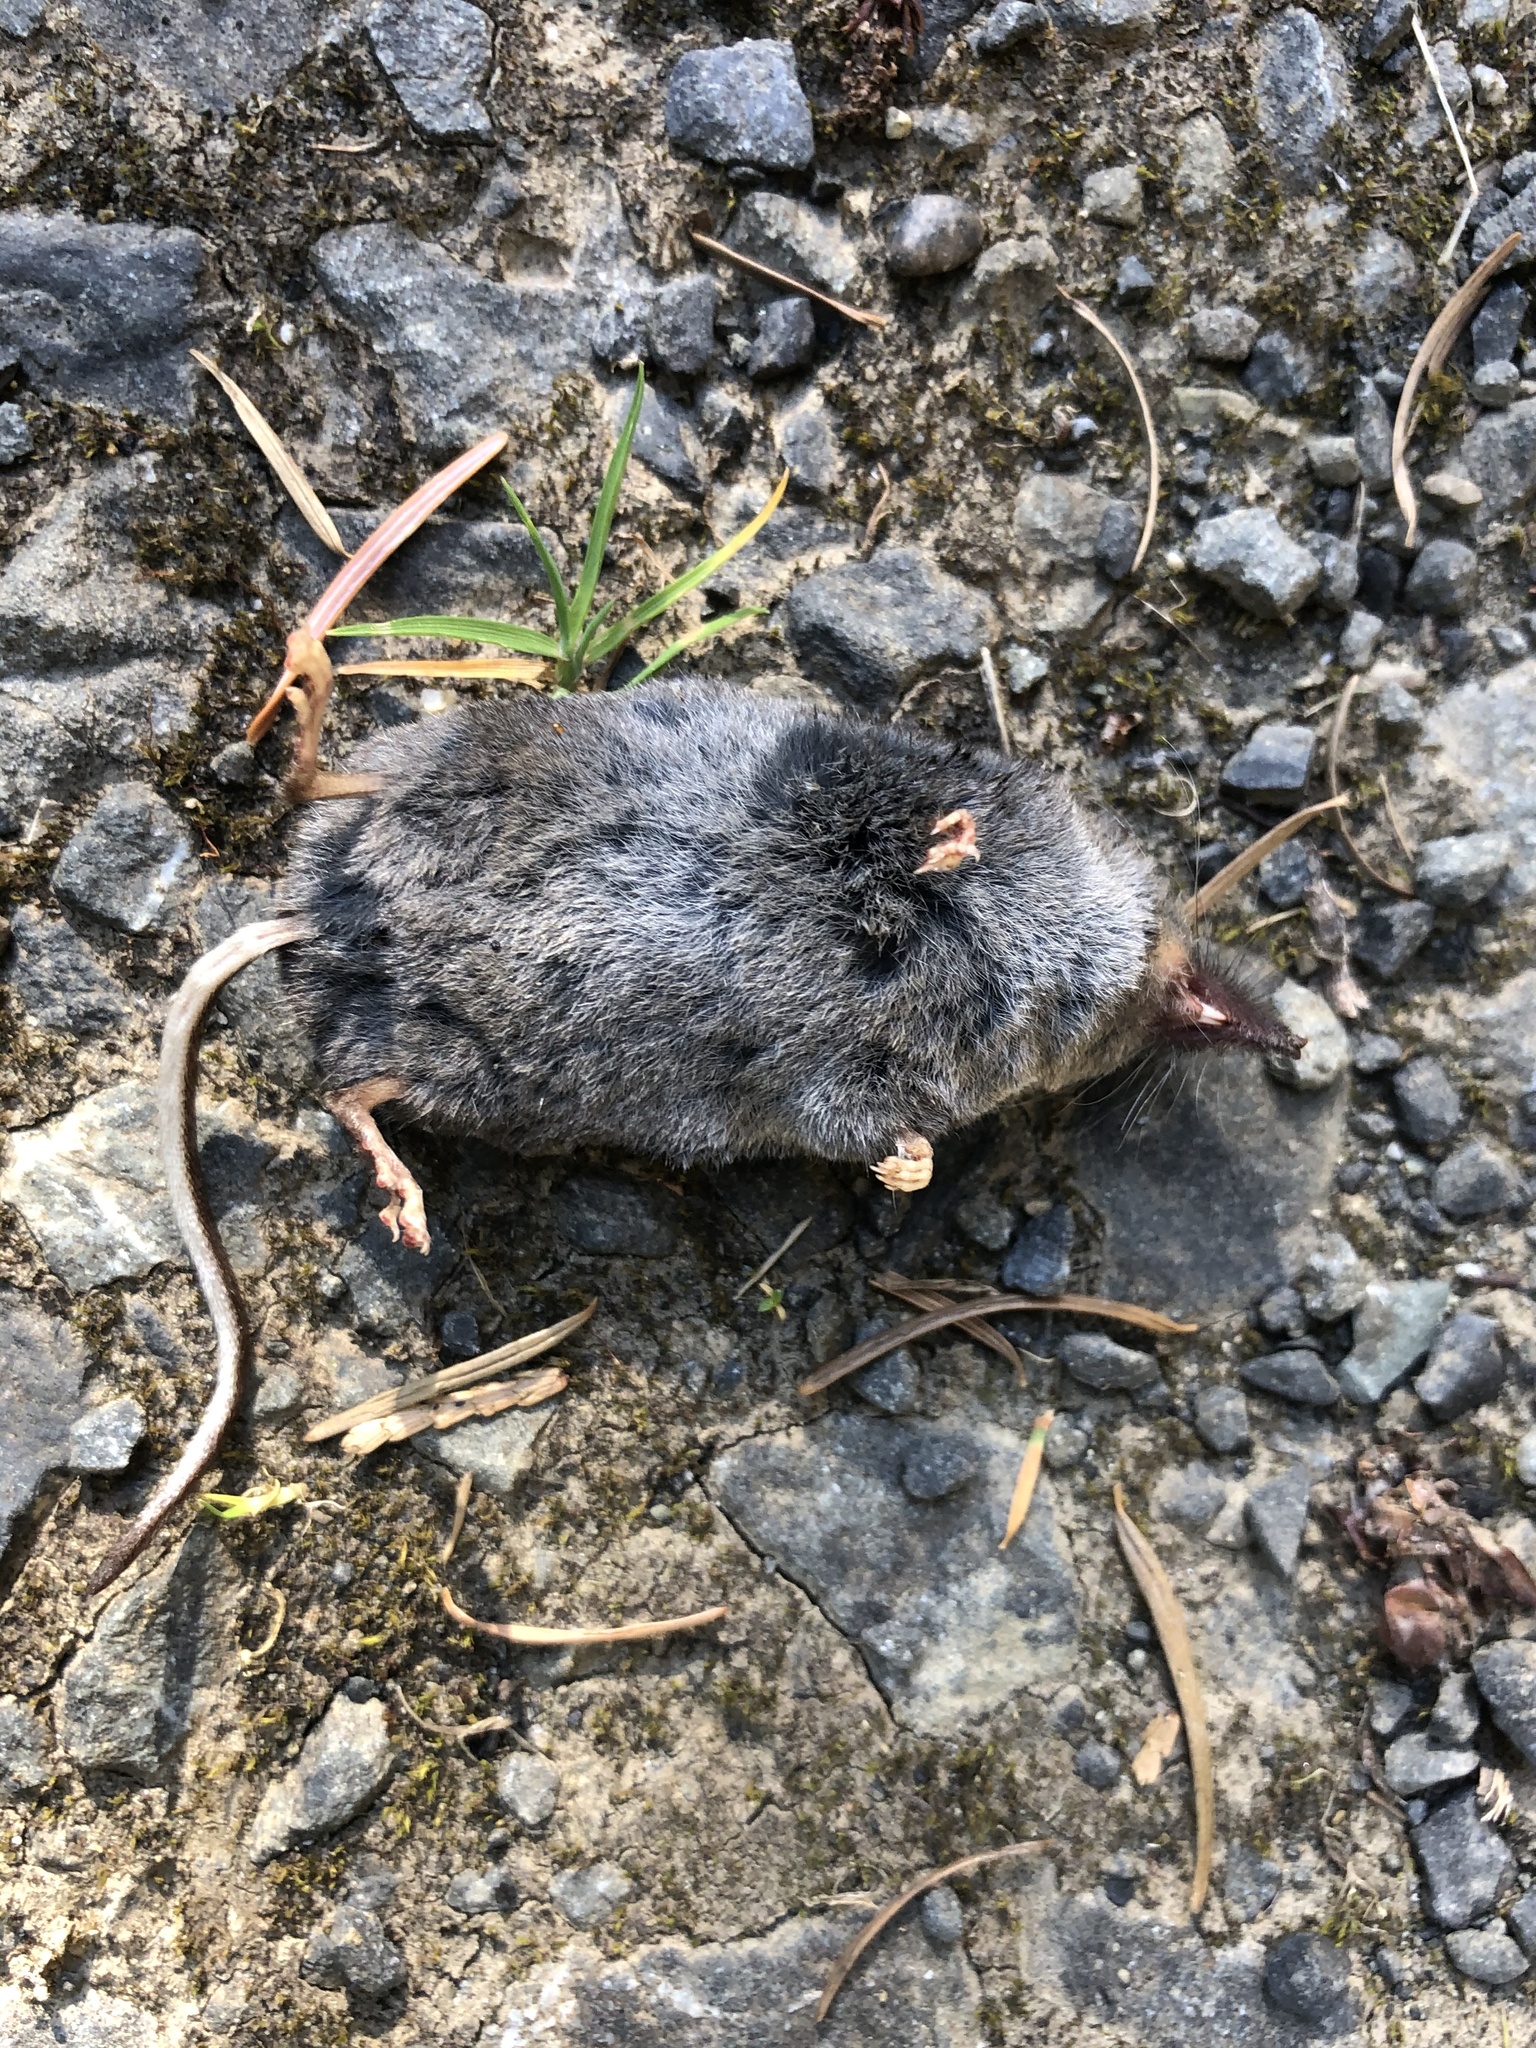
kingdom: Animalia
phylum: Chordata
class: Mammalia
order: Soricomorpha
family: Soricidae
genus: Sorex
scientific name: Sorex trowbridgii
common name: Trowbridge's shrew
